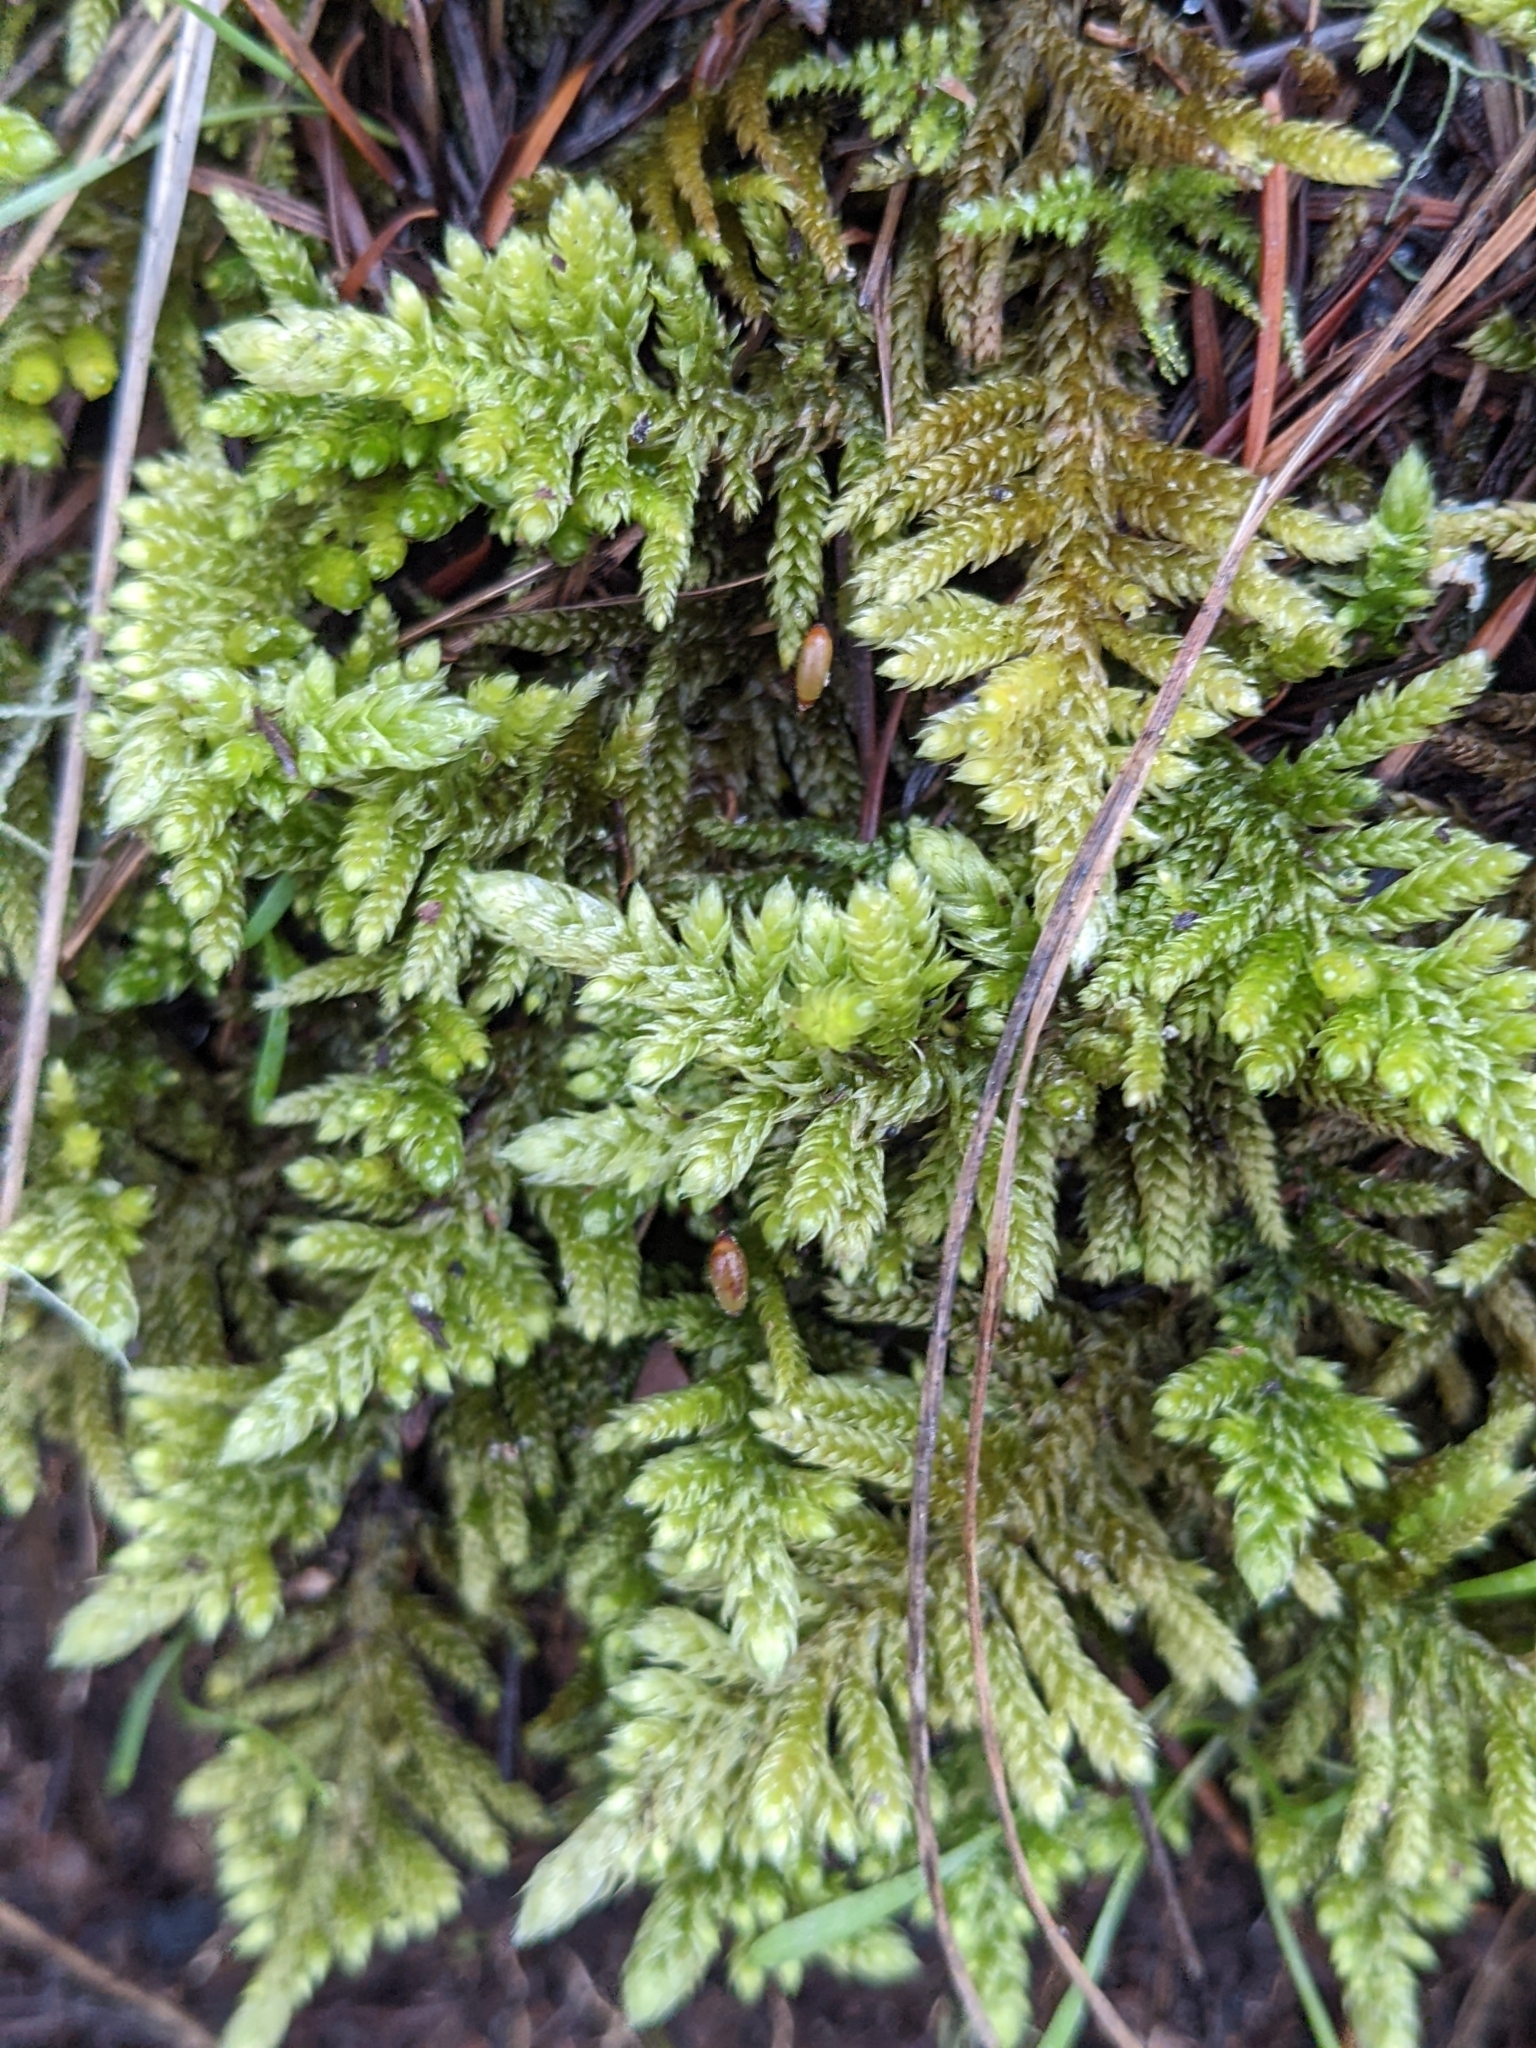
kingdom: Plantae
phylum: Bryophyta
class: Bryopsida
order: Hypnales
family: Brachytheciaceae
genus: Homalothecium
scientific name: Homalothecium megaptilum
